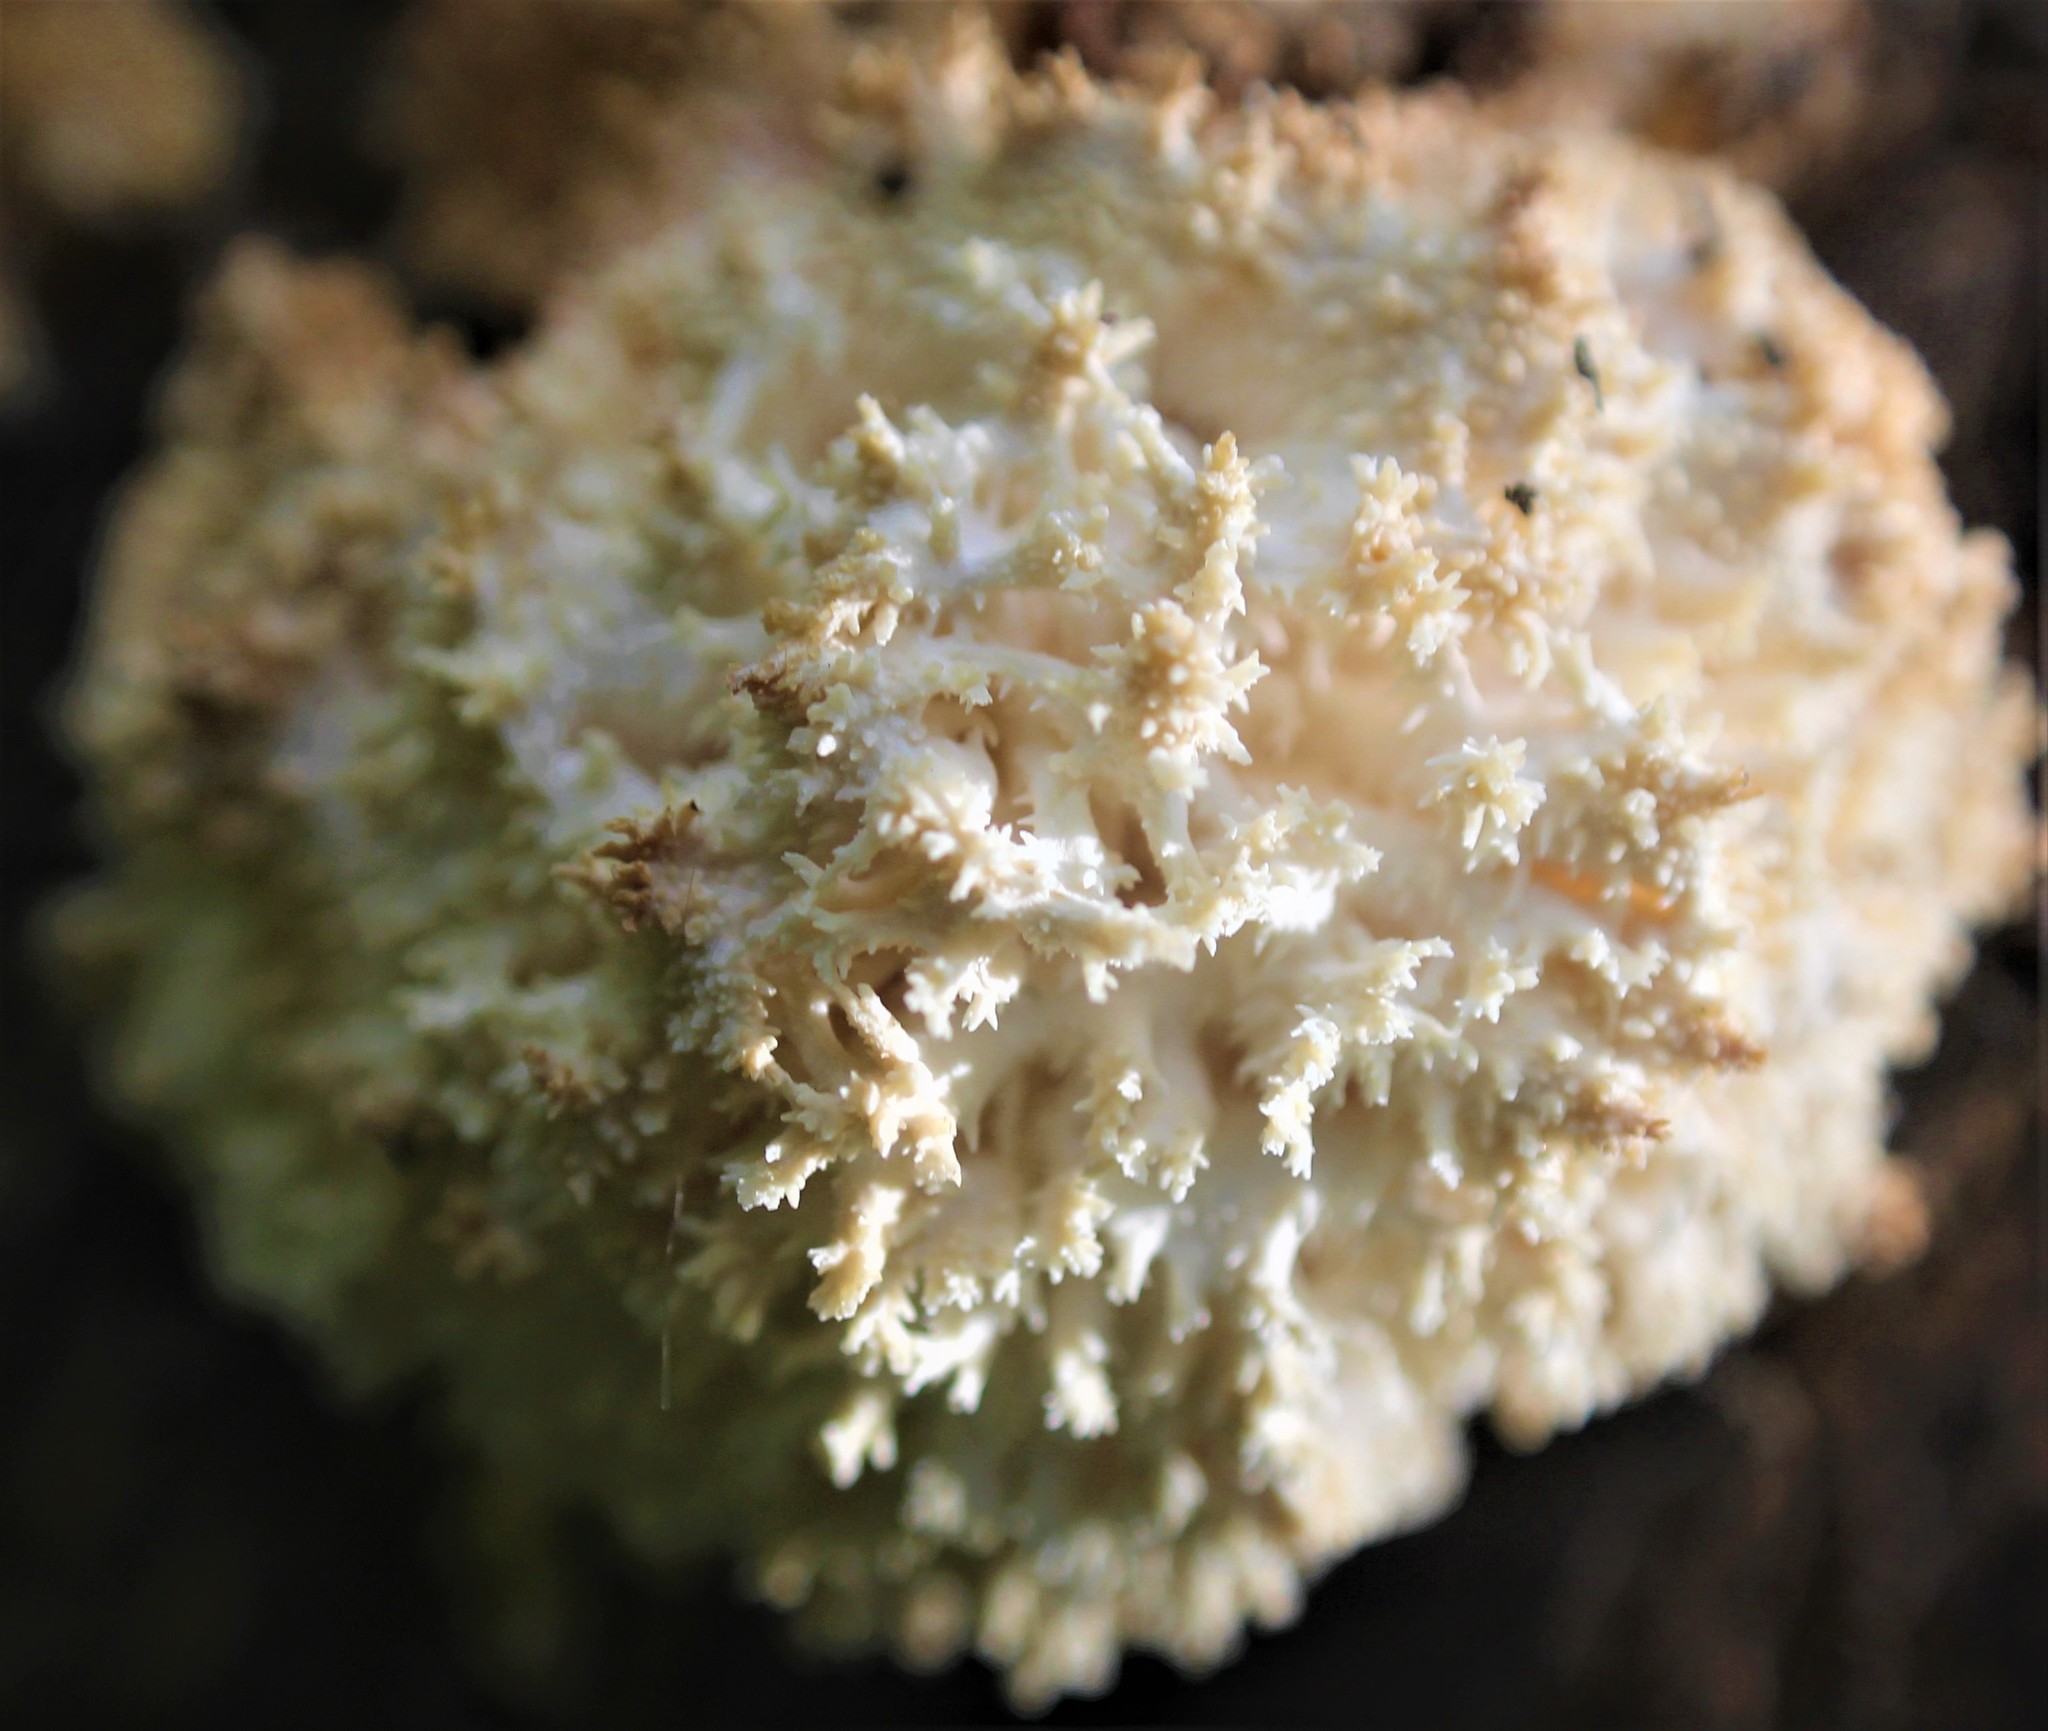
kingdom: Fungi
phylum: Basidiomycota
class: Agaricomycetes
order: Russulales
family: Hericiaceae
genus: Hericium
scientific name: Hericium coralloides
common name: Coral tooth
